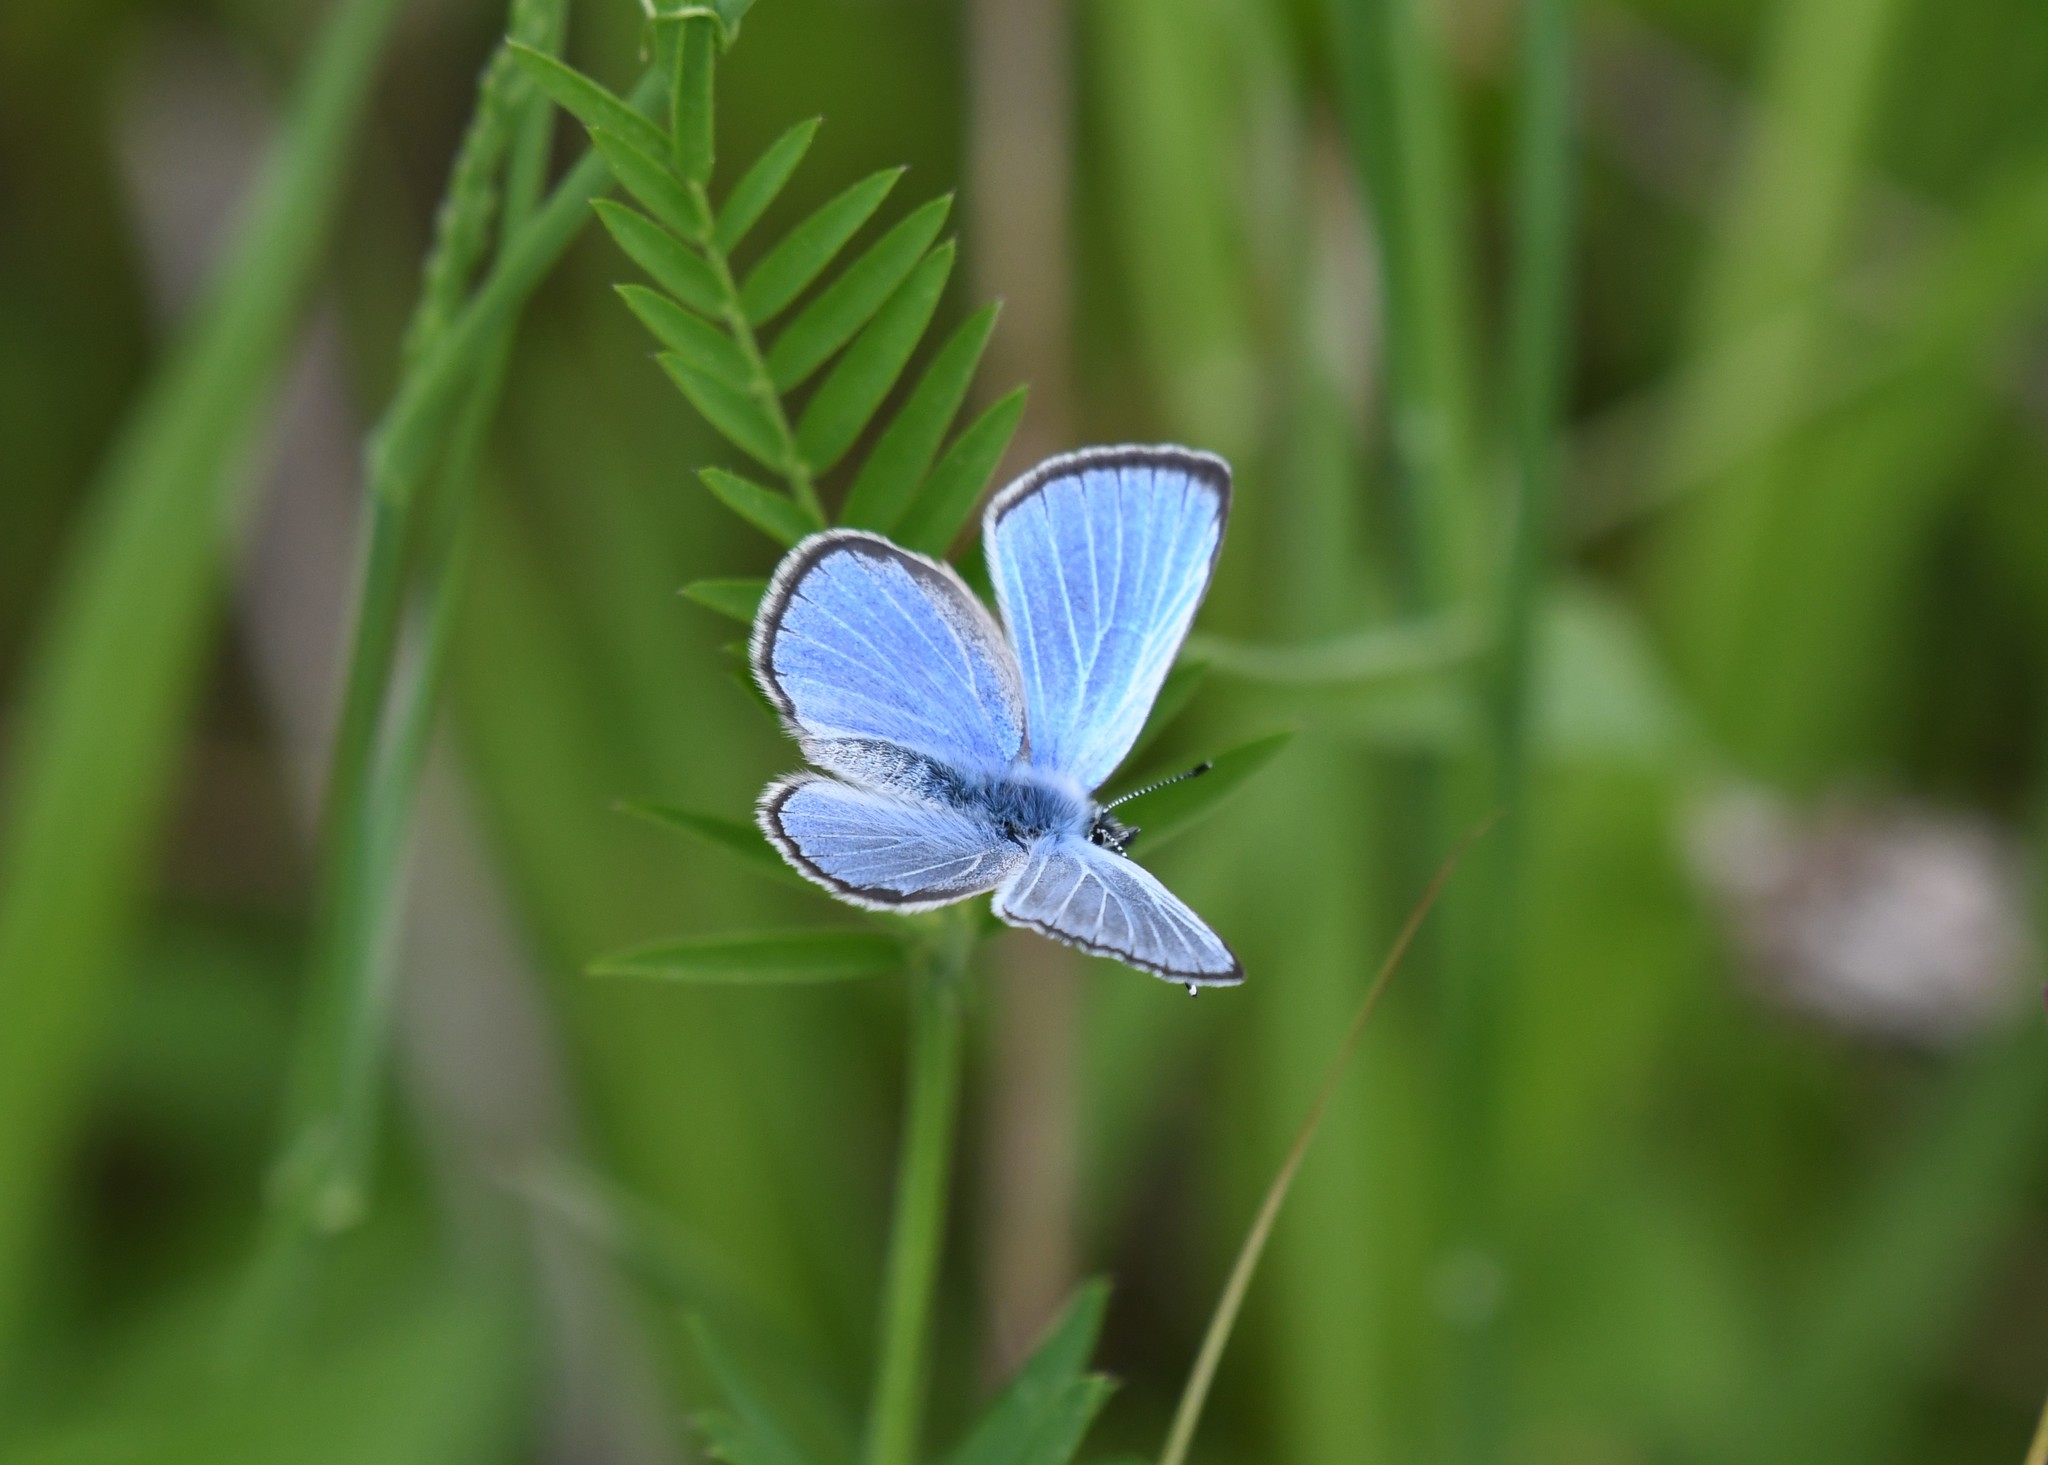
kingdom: Animalia
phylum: Arthropoda
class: Insecta
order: Lepidoptera
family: Lycaenidae
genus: Glaucopsyche
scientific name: Glaucopsyche lygdamus
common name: Silvery blue
